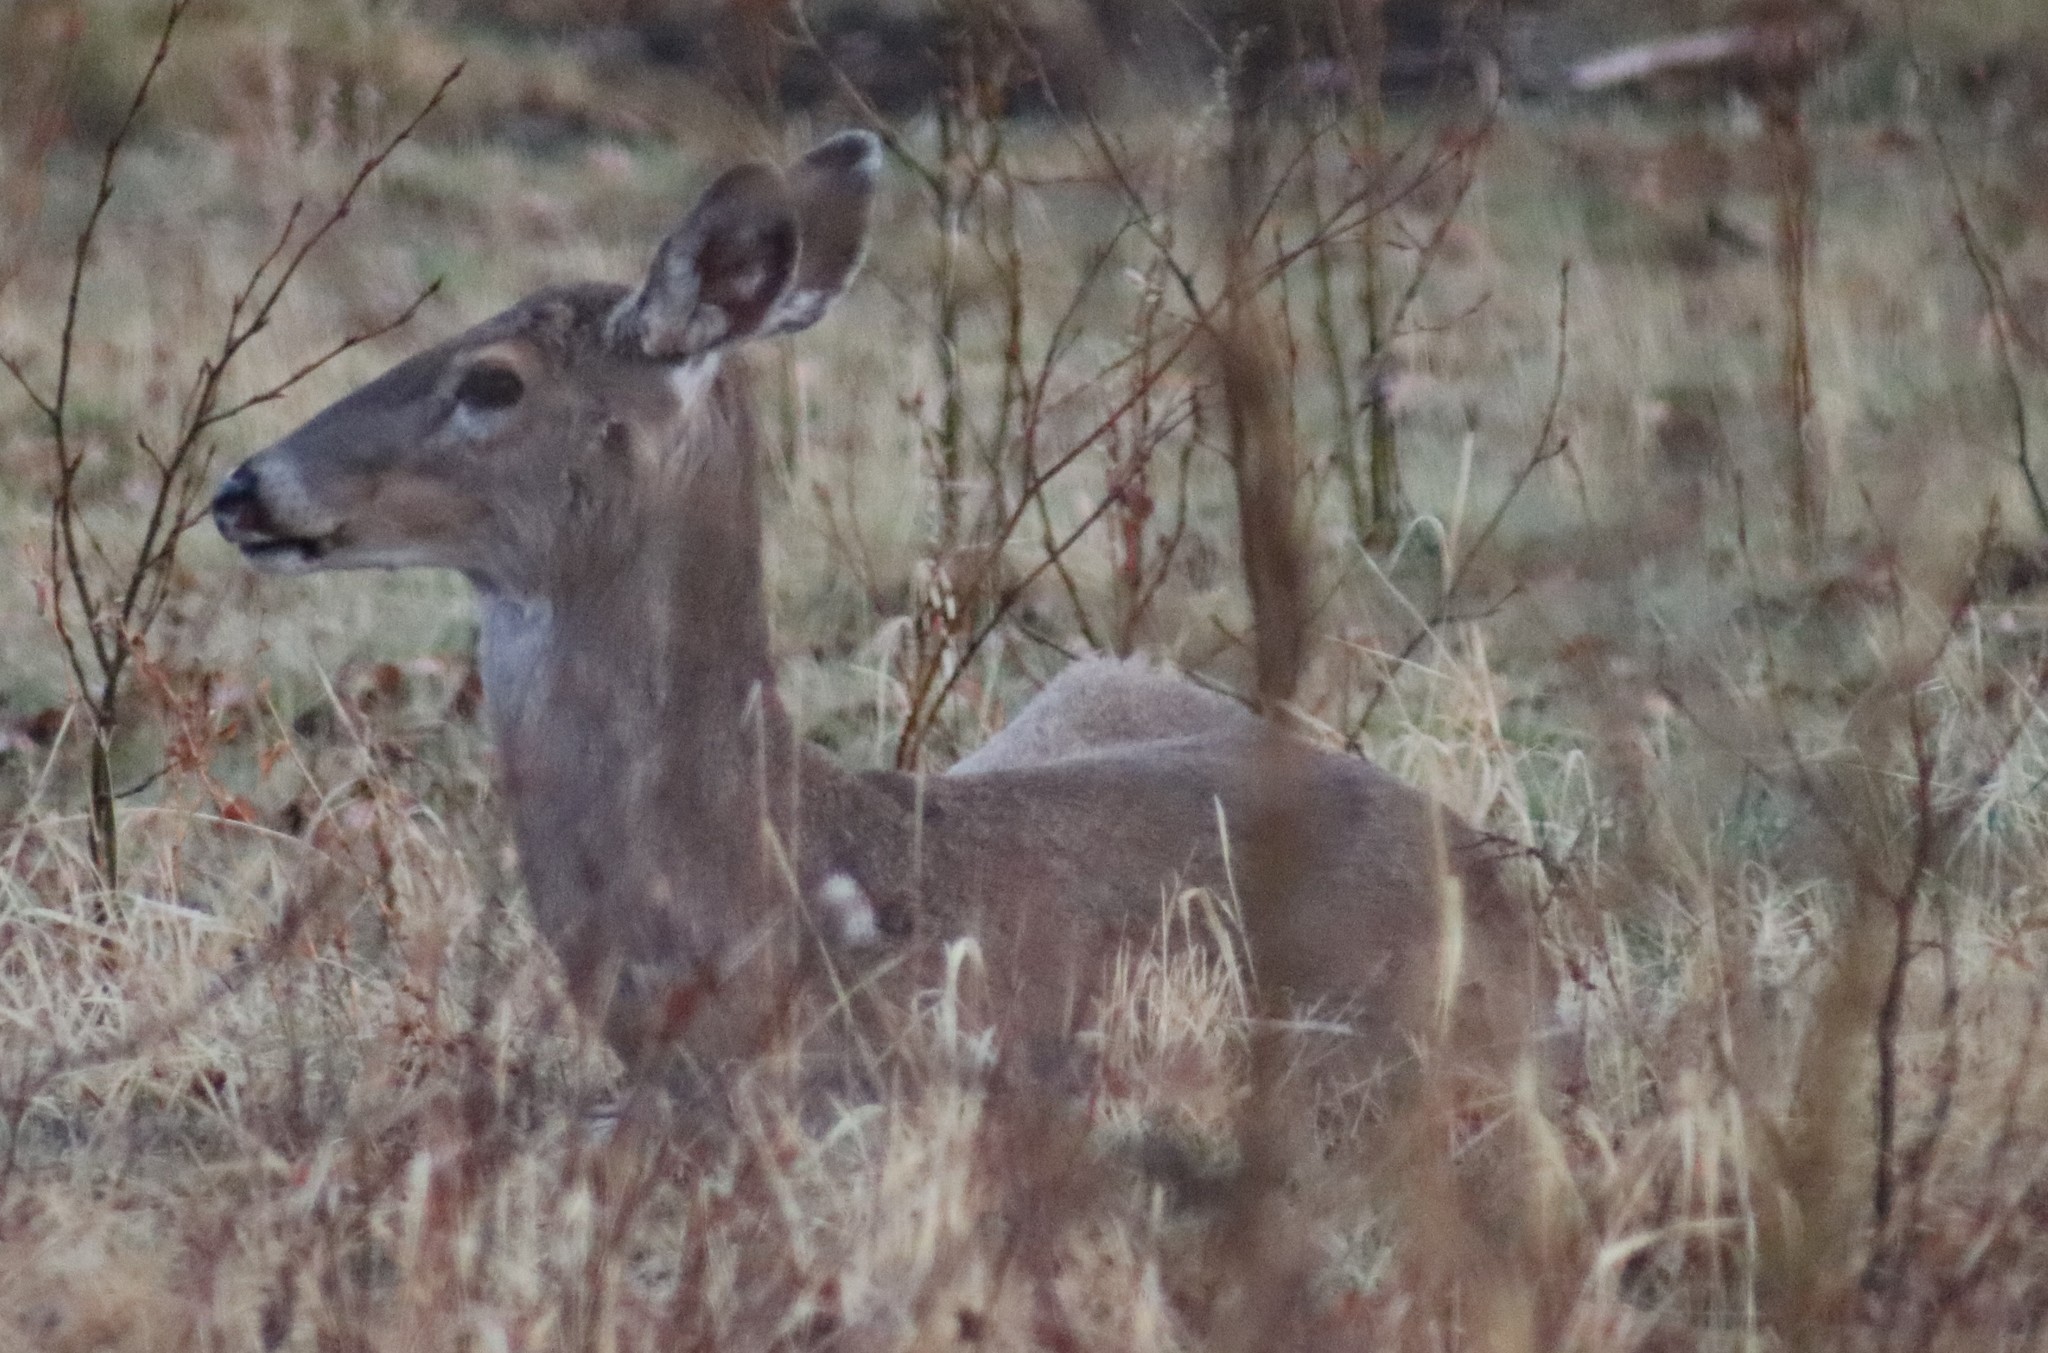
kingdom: Animalia
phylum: Chordata
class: Mammalia
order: Artiodactyla
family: Cervidae
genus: Odocoileus
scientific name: Odocoileus virginianus
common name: White-tailed deer
